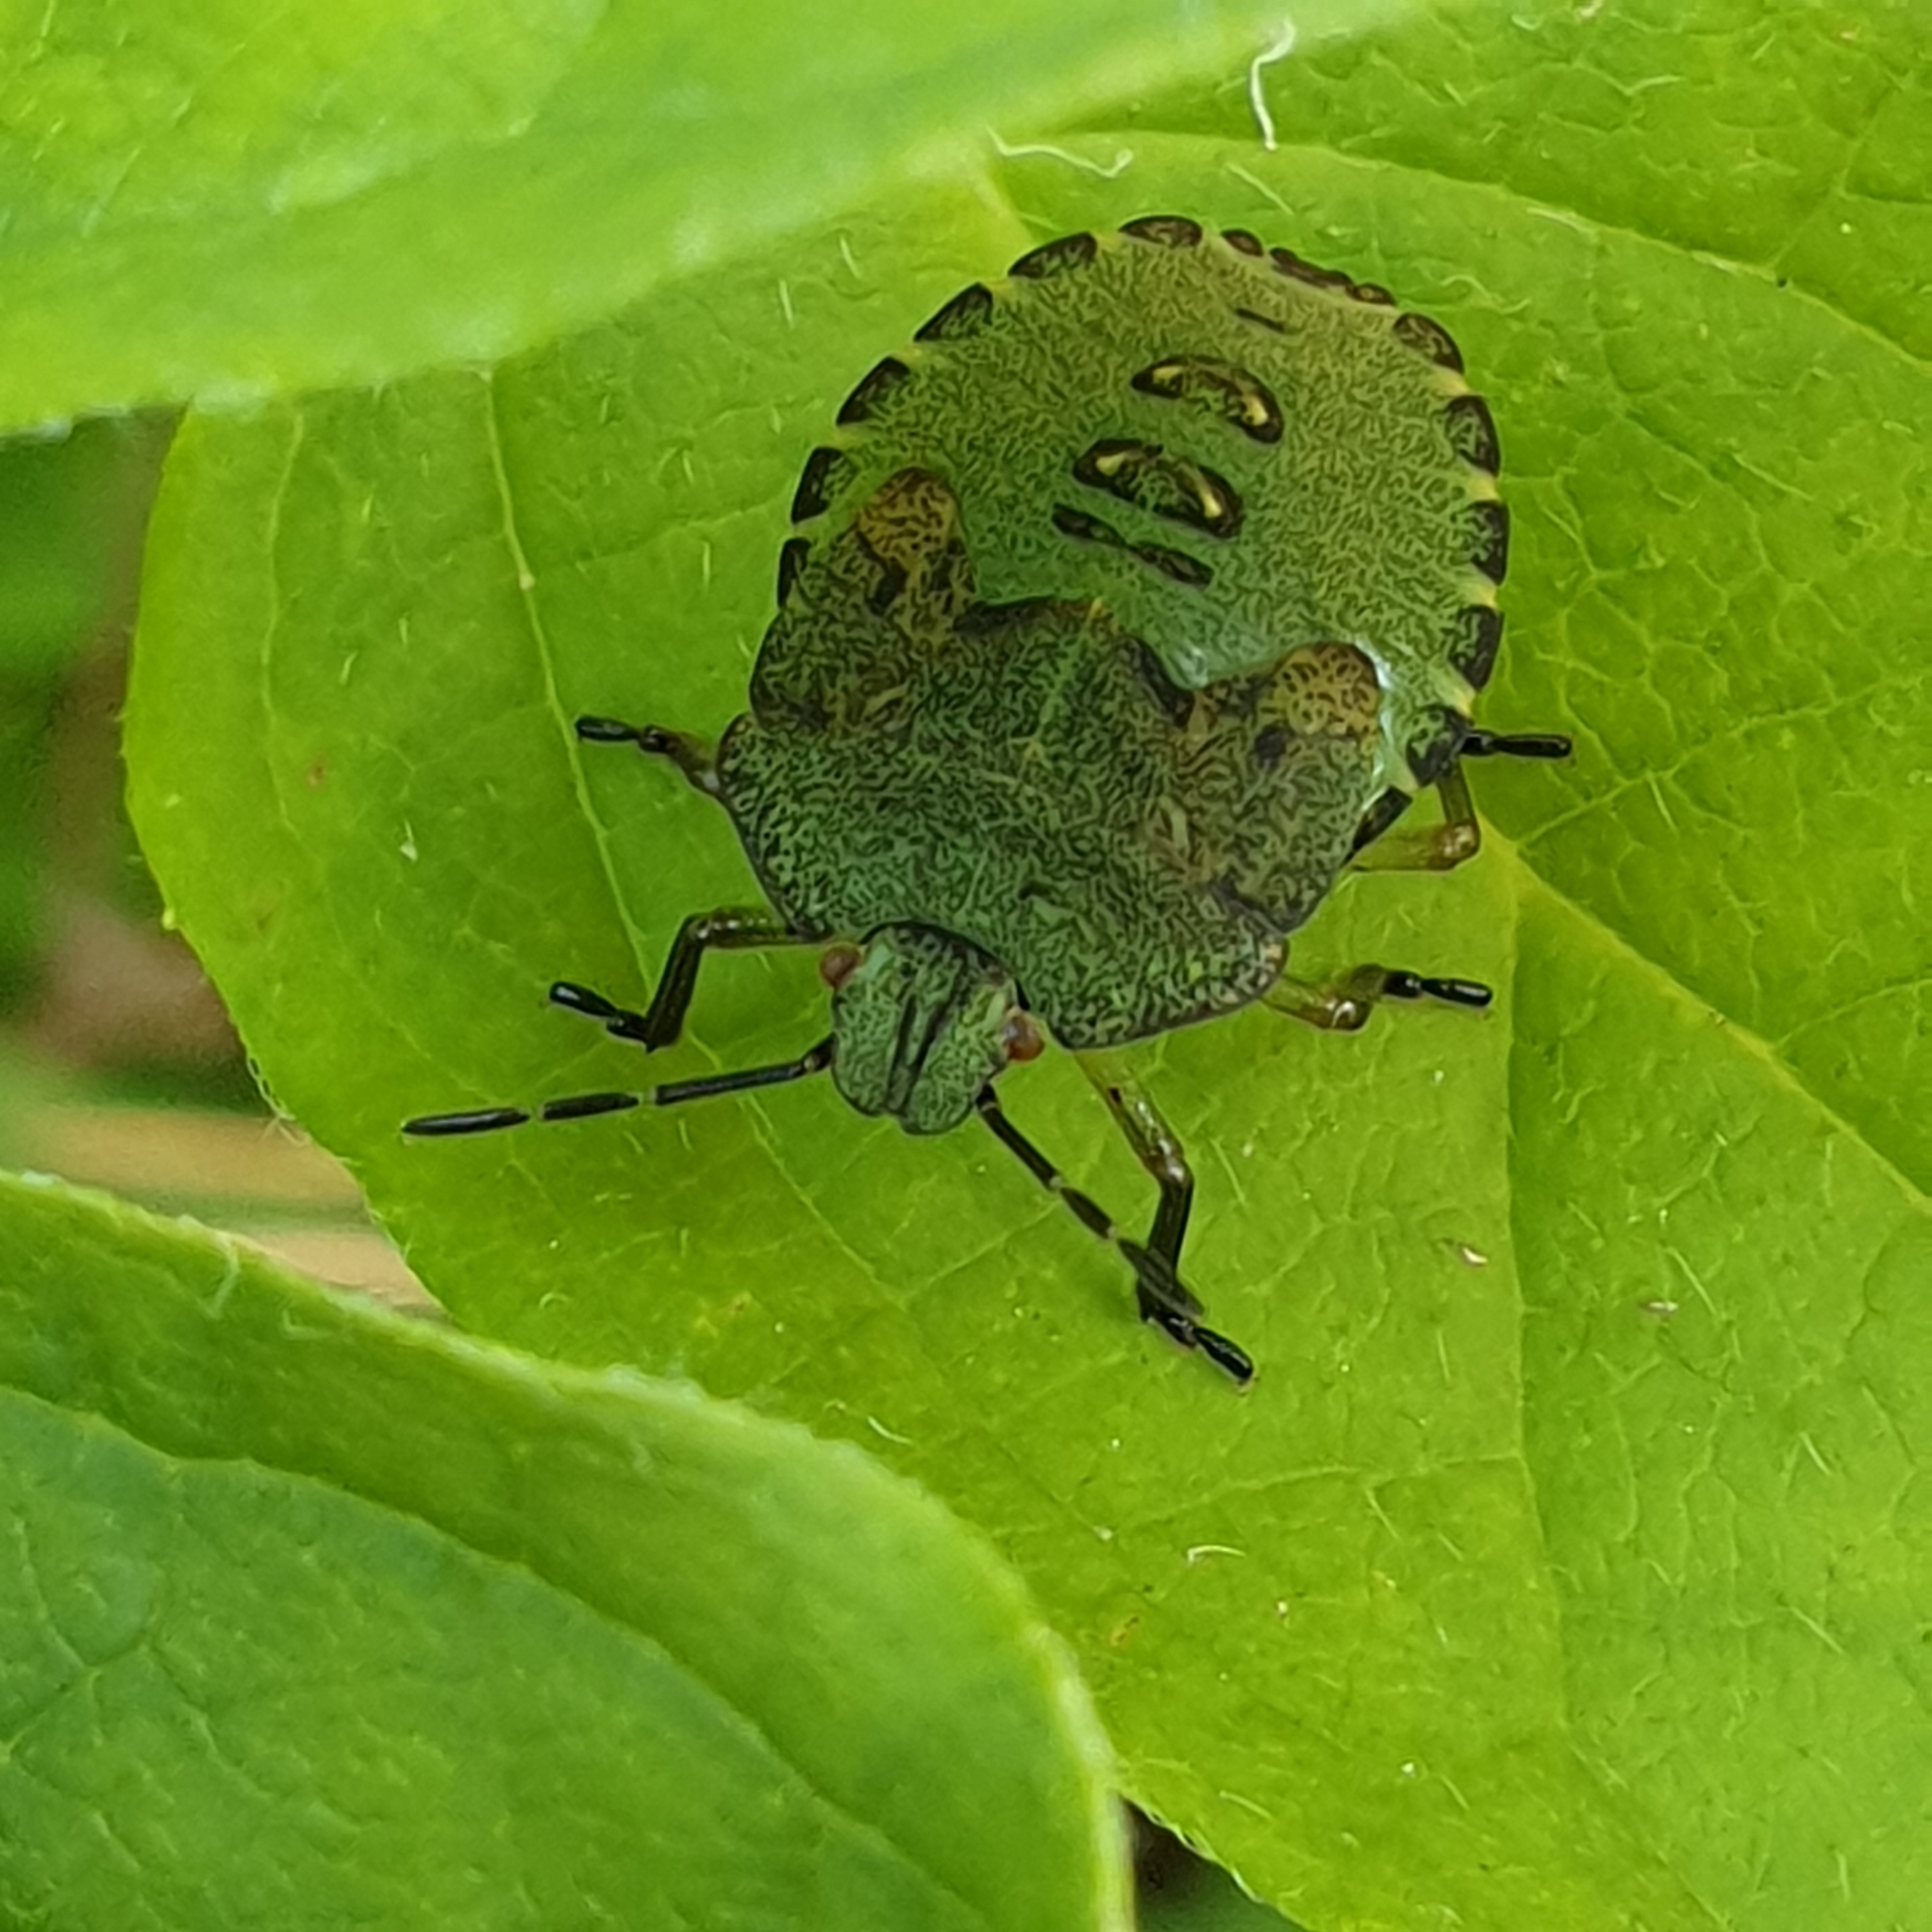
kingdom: Animalia
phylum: Arthropoda
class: Insecta
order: Hemiptera
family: Pentatomidae
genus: Palomena
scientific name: Palomena prasina
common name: Green shieldbug
